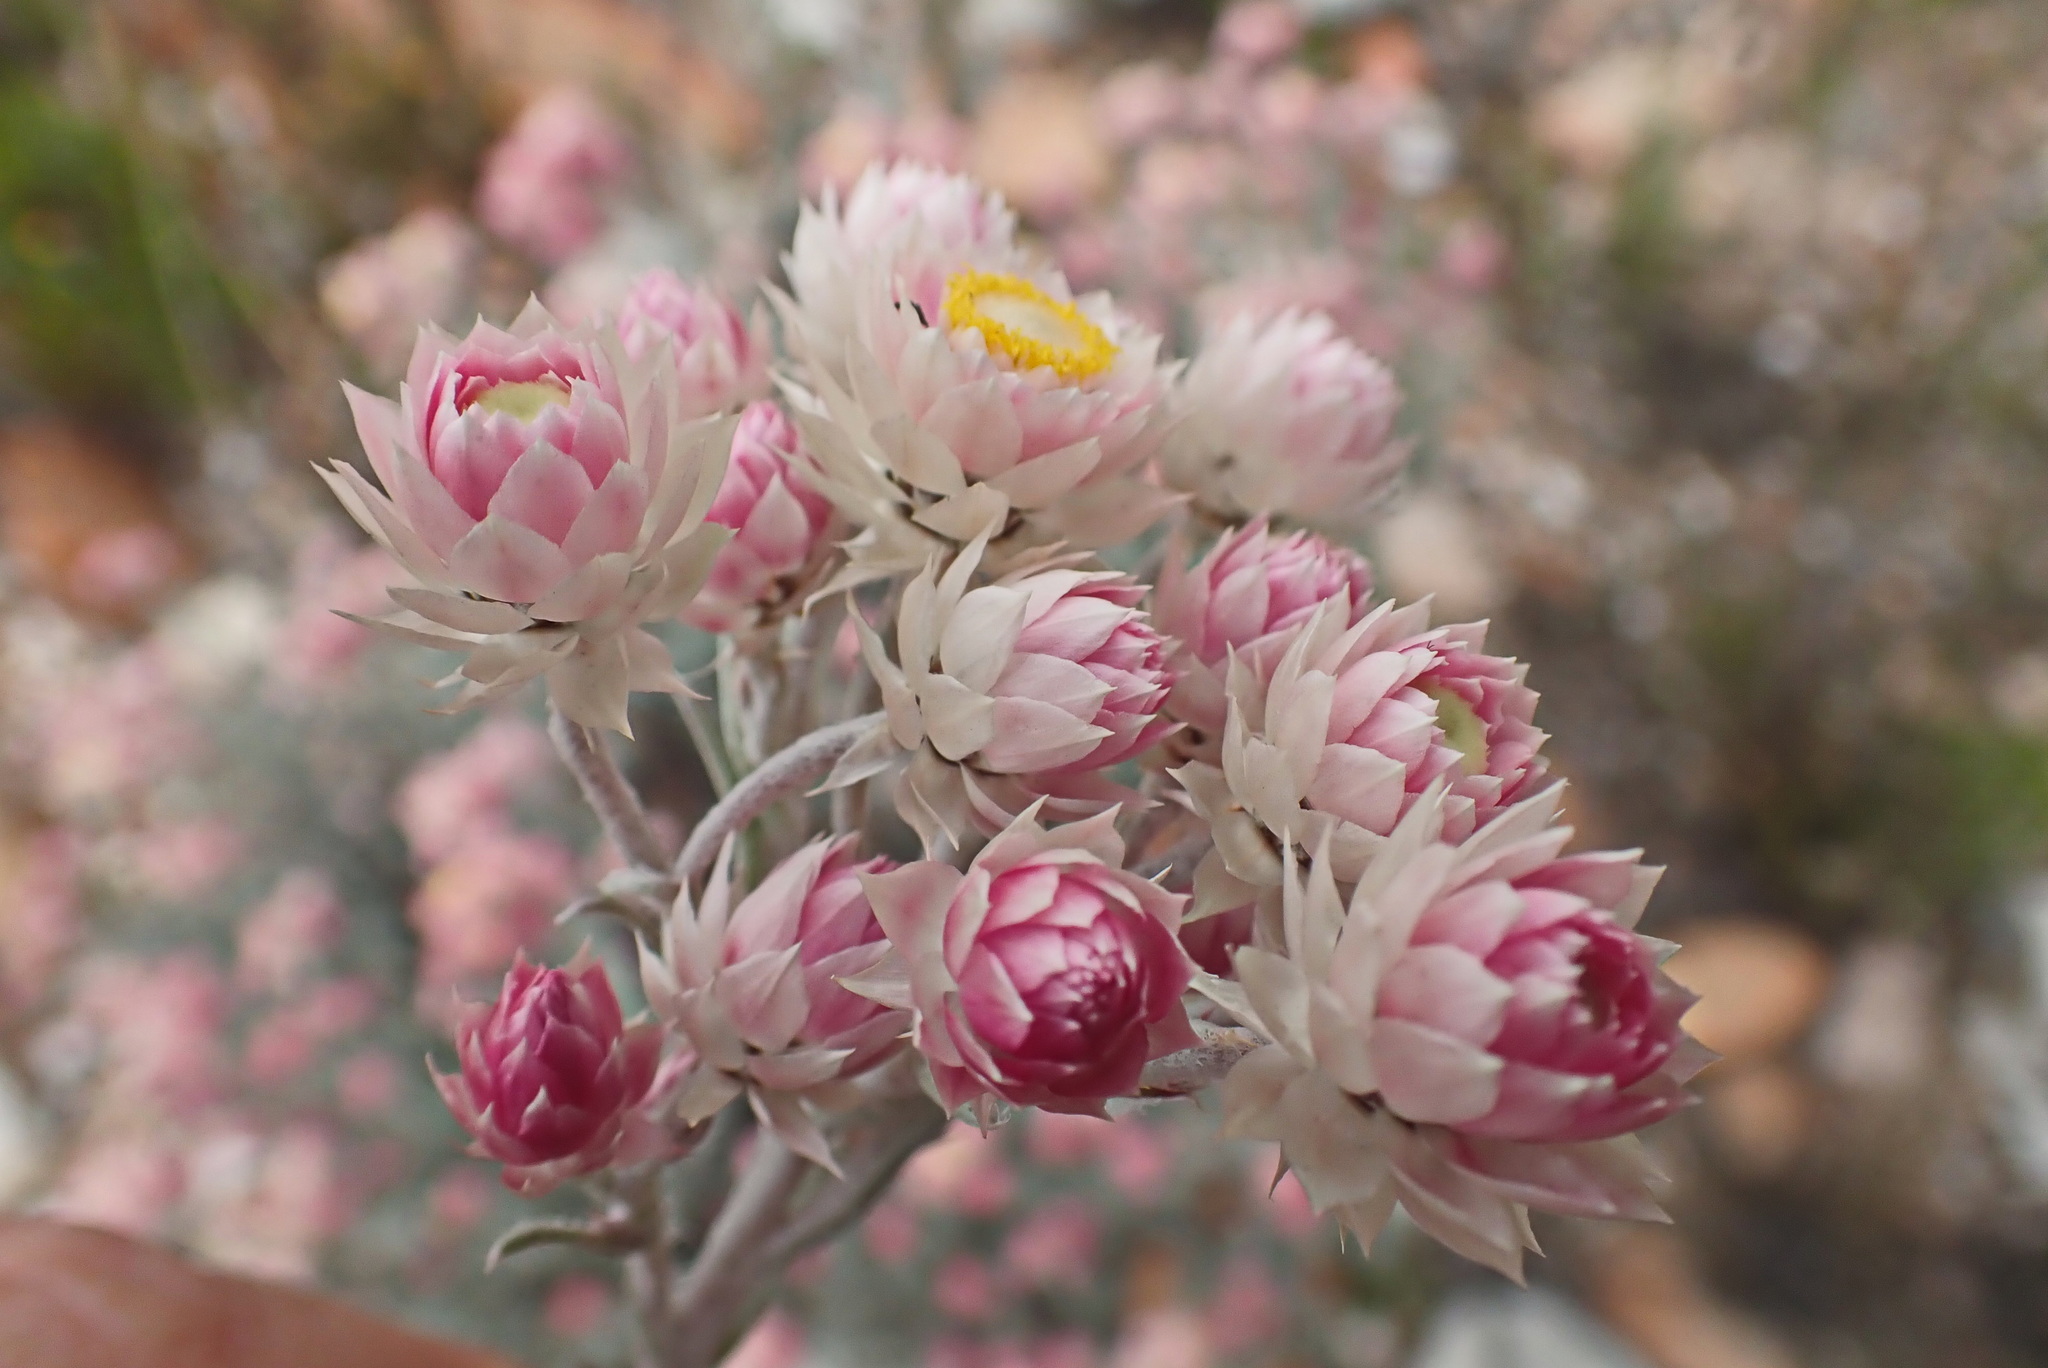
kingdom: Plantae
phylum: Tracheophyta
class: Magnoliopsida
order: Asterales
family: Asteraceae
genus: Achyranthemum
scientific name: Achyranthemum paniculatum
